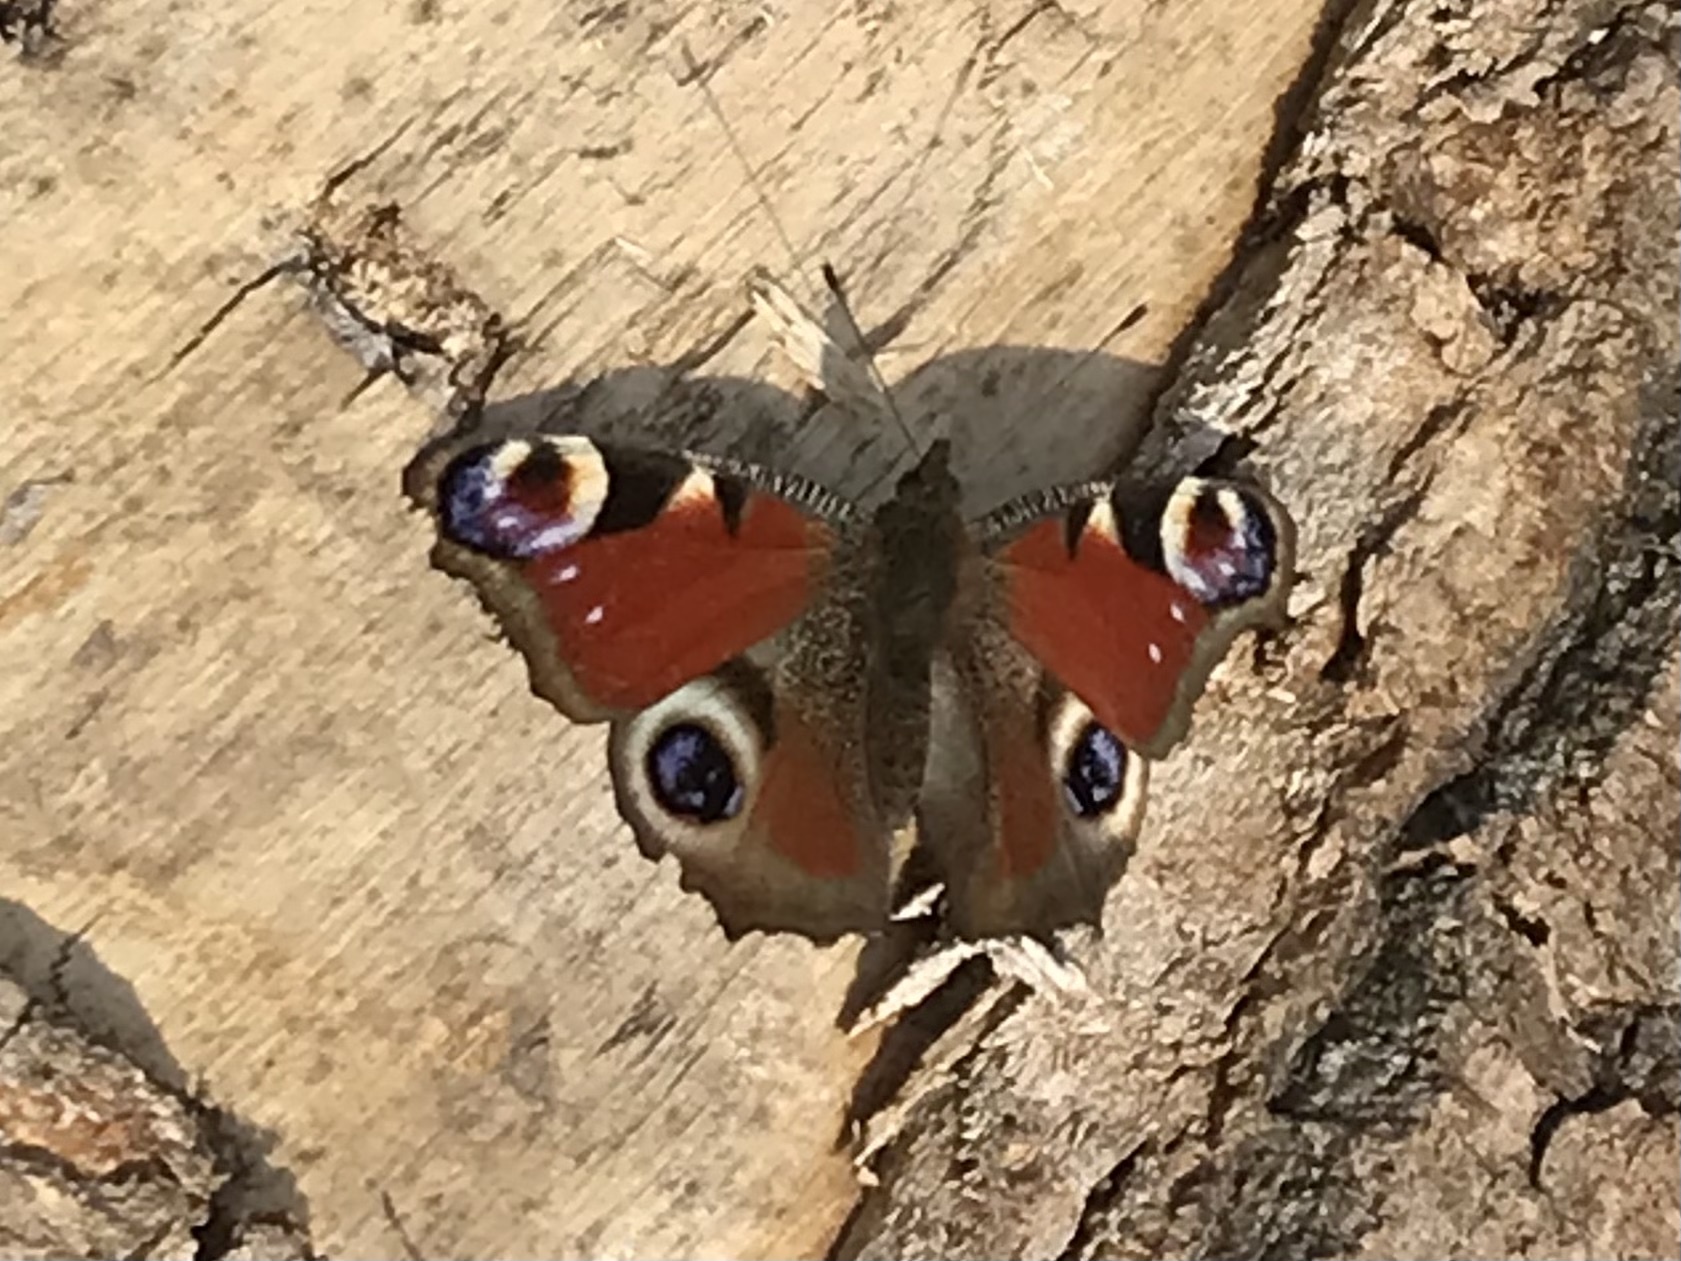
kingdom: Animalia
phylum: Arthropoda
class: Insecta
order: Lepidoptera
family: Nymphalidae
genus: Aglais
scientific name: Aglais io
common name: Peacock
